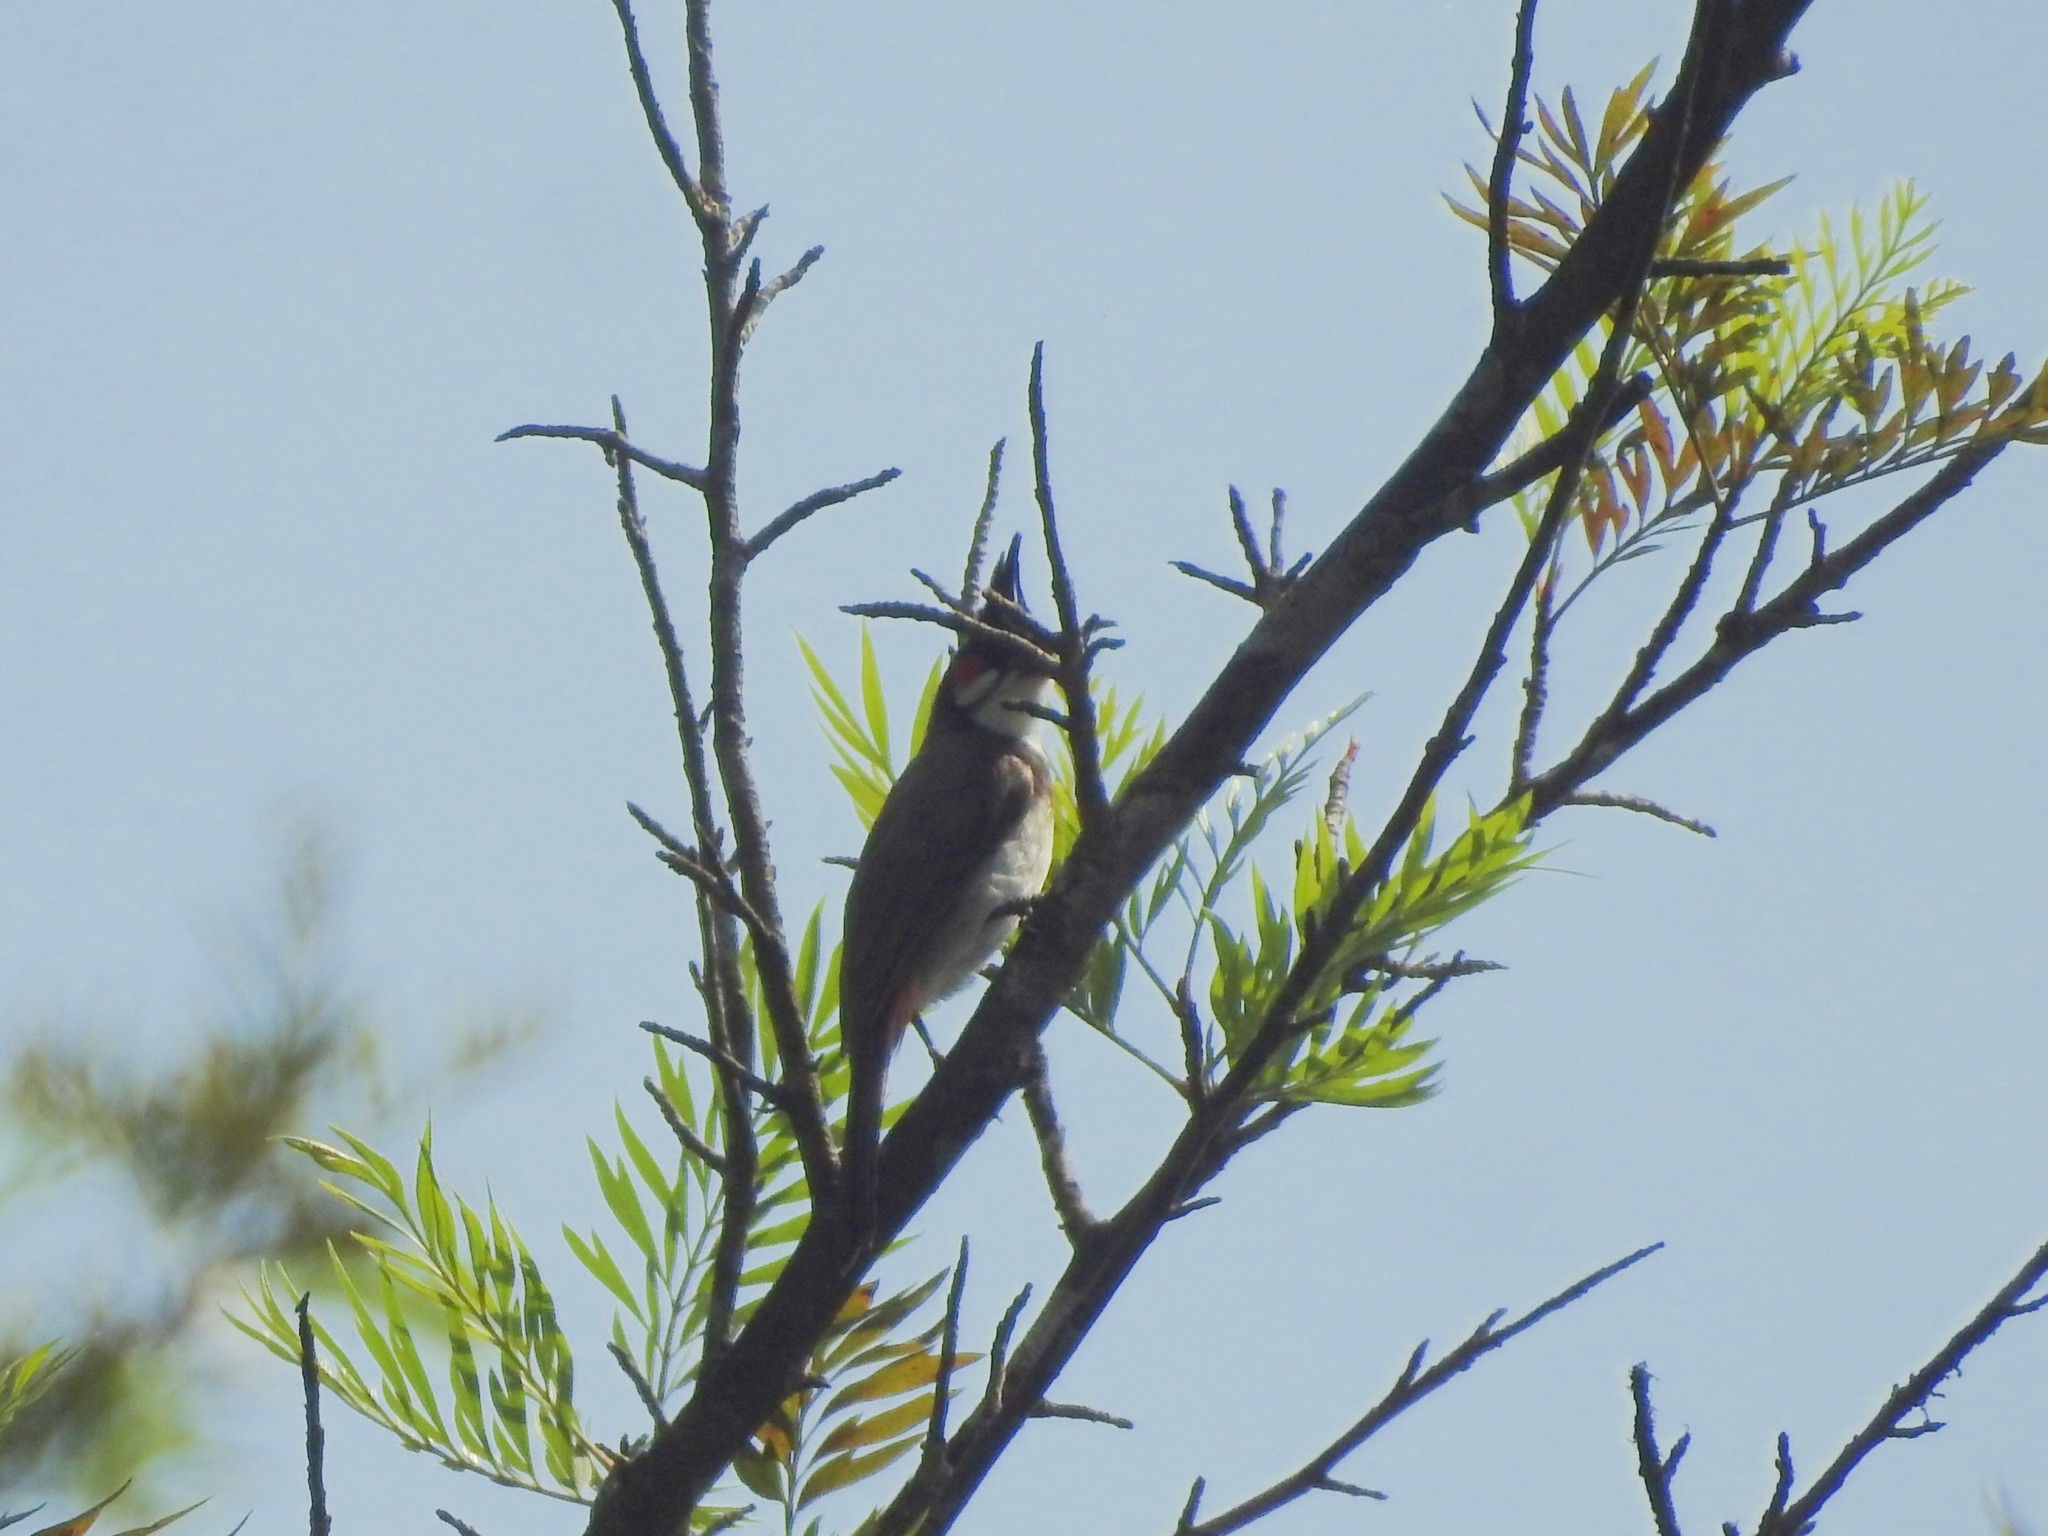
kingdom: Animalia
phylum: Chordata
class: Aves
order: Passeriformes
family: Pycnonotidae
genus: Pycnonotus
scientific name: Pycnonotus jocosus
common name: Red-whiskered bulbul
